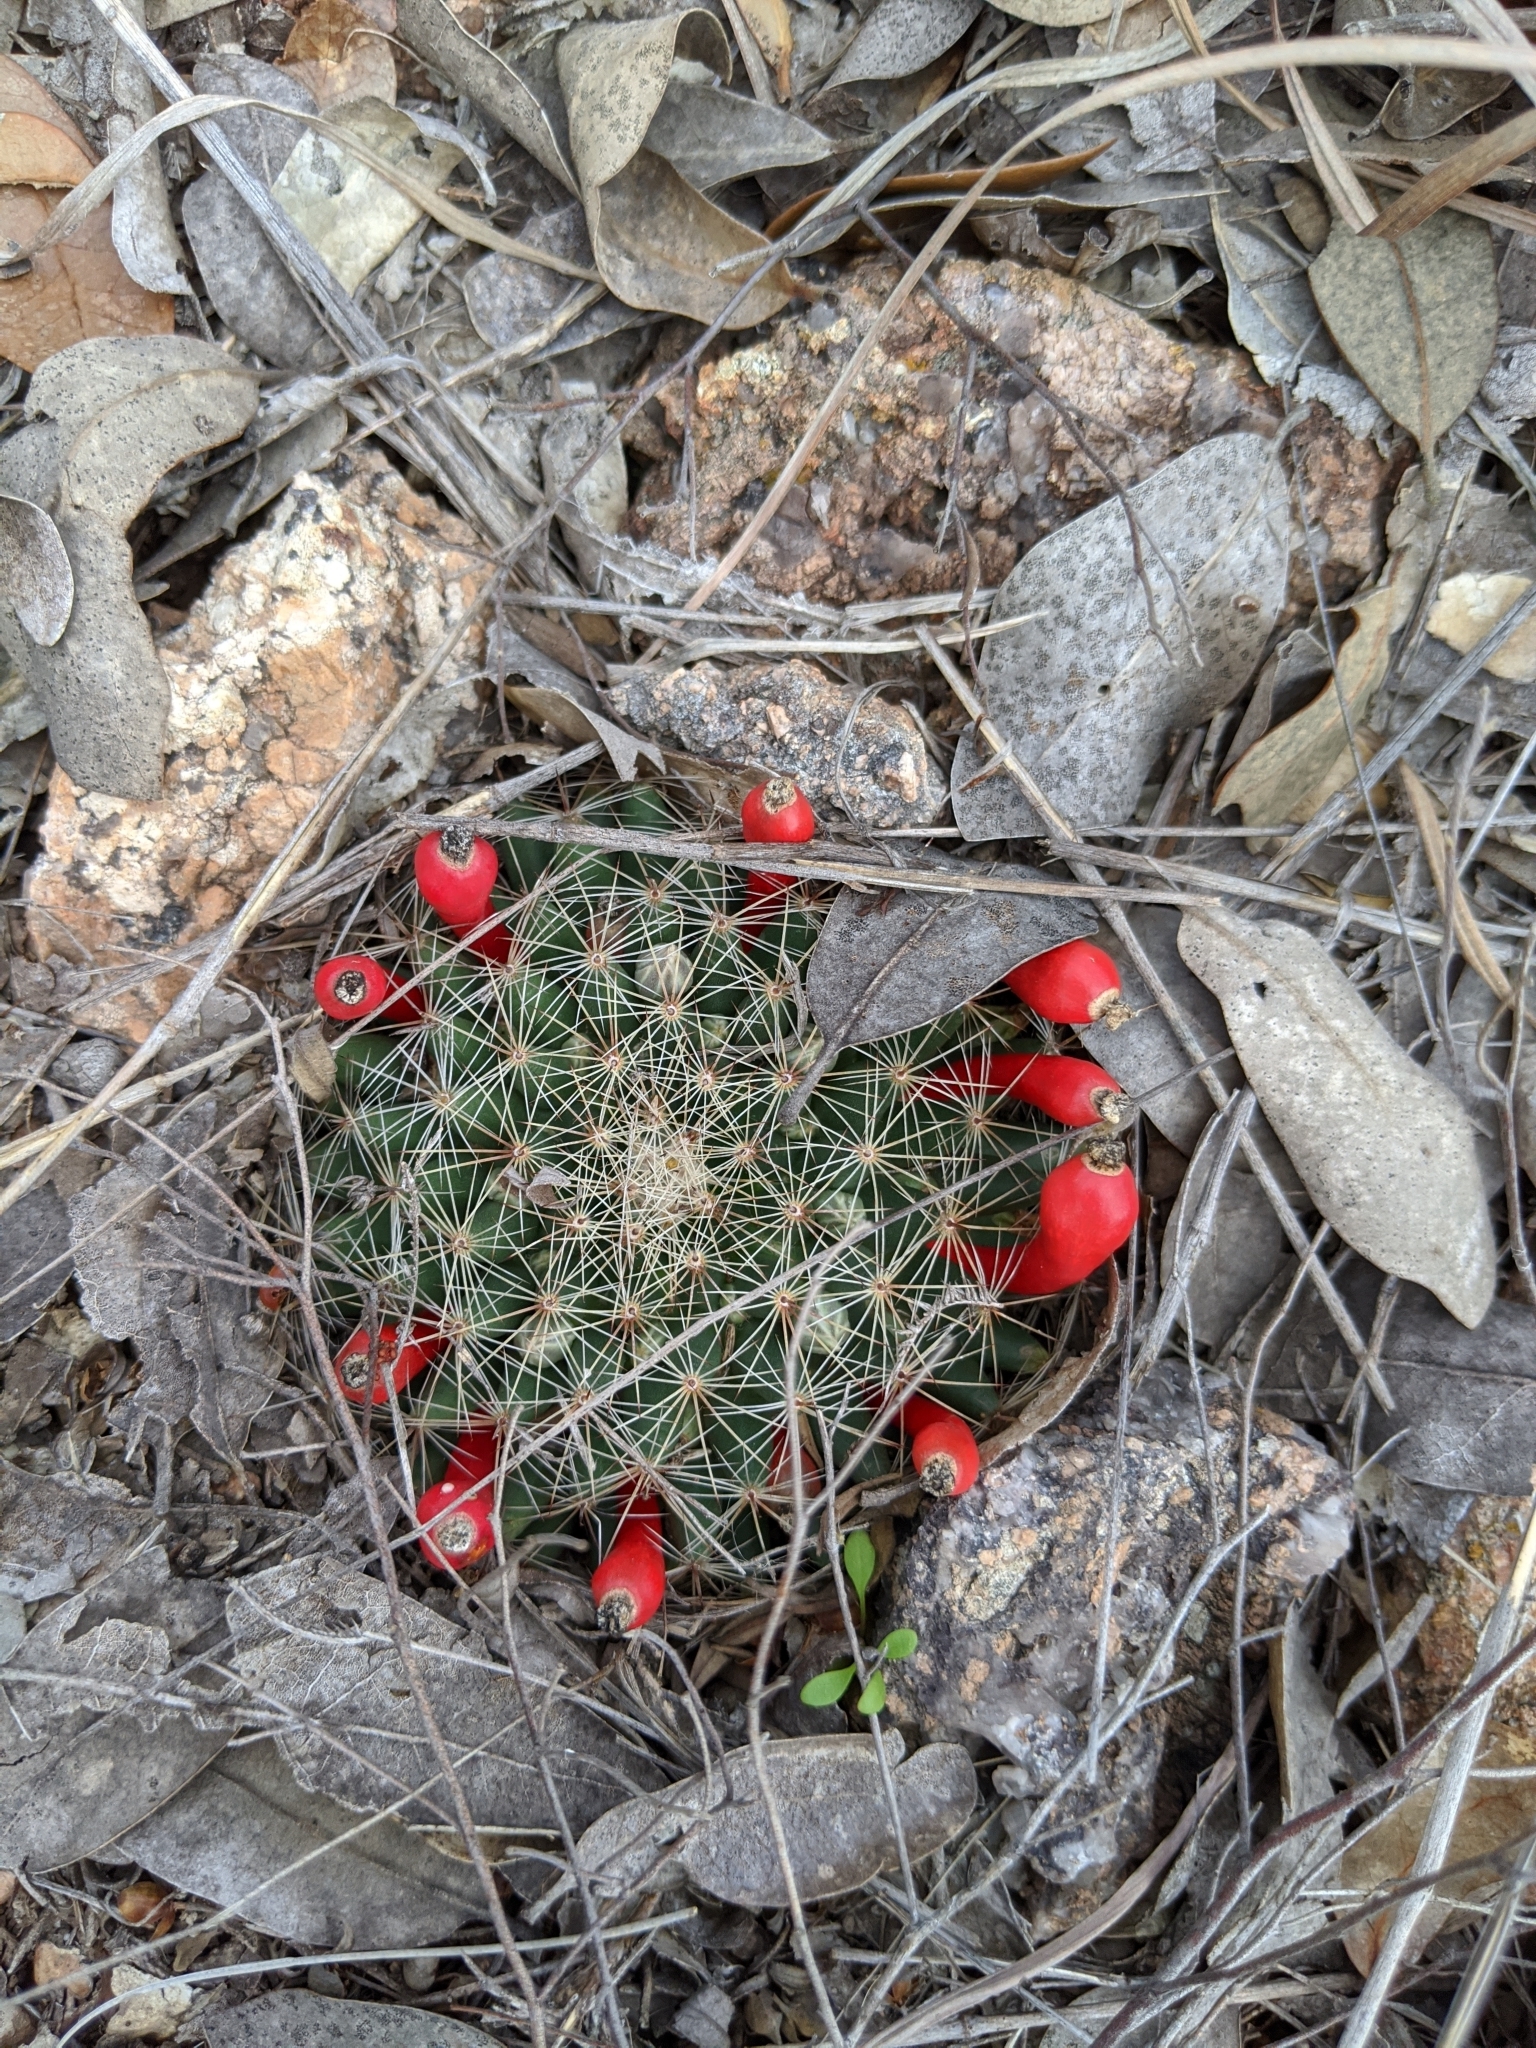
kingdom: Plantae
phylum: Tracheophyta
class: Magnoliopsida
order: Caryophyllales
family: Cactaceae
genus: Mammillaria
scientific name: Mammillaria heyderi
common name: Little nipple cactus
